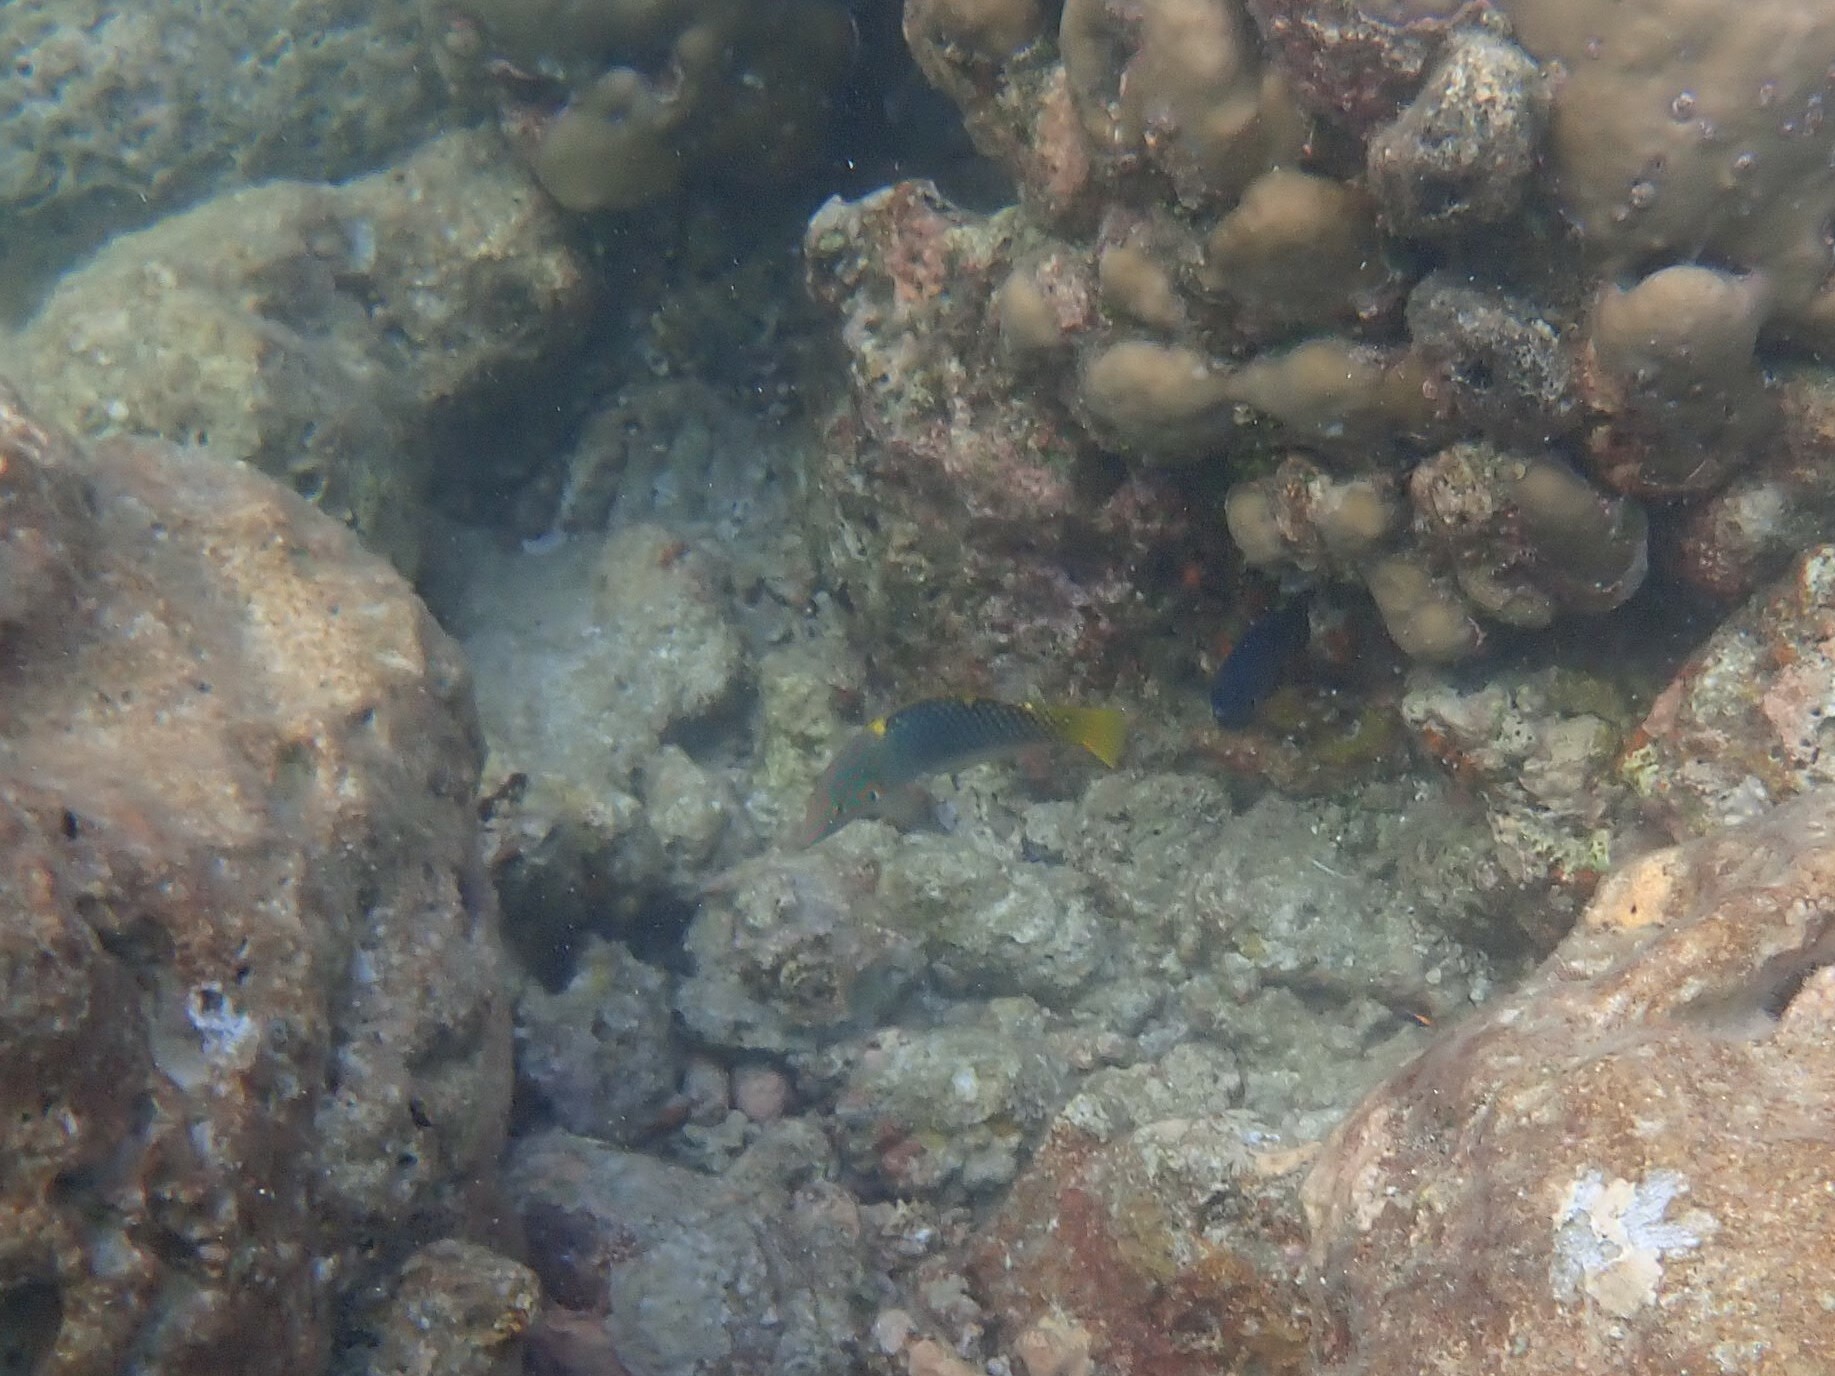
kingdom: Animalia
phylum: Chordata
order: Perciformes
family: Labridae
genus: Halichoeres
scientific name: Halichoeres hortulanus
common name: Checkerboard wrasse
